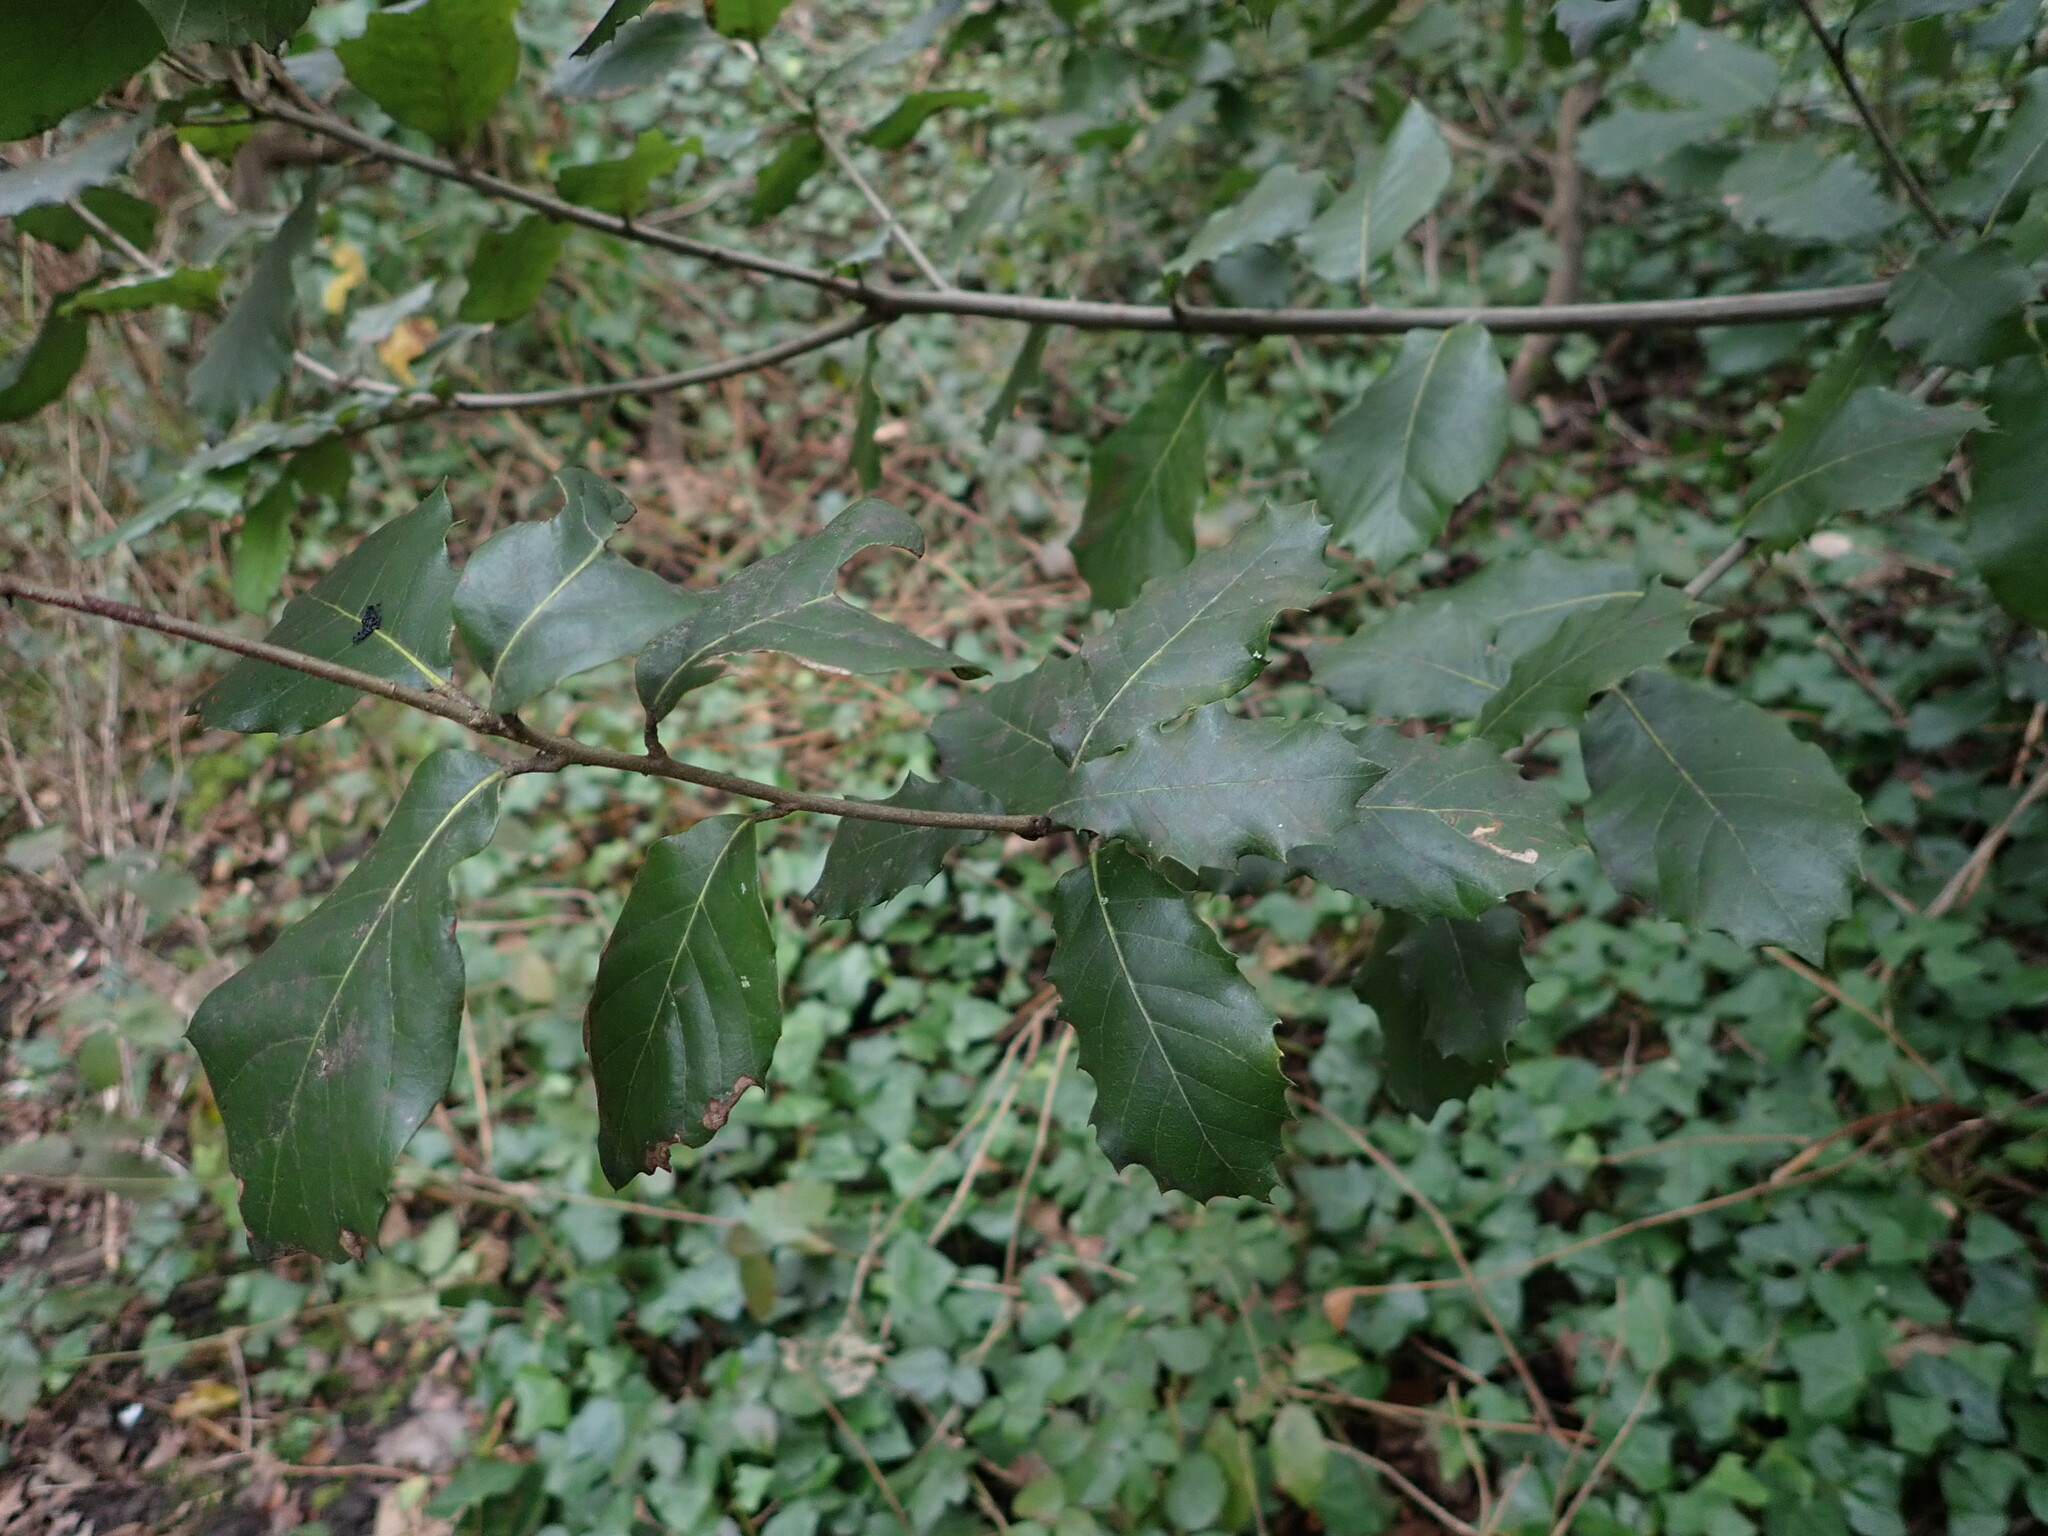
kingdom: Plantae
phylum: Tracheophyta
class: Magnoliopsida
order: Fagales
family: Fagaceae
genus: Quercus
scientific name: Quercus ilex
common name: Evergreen oak
